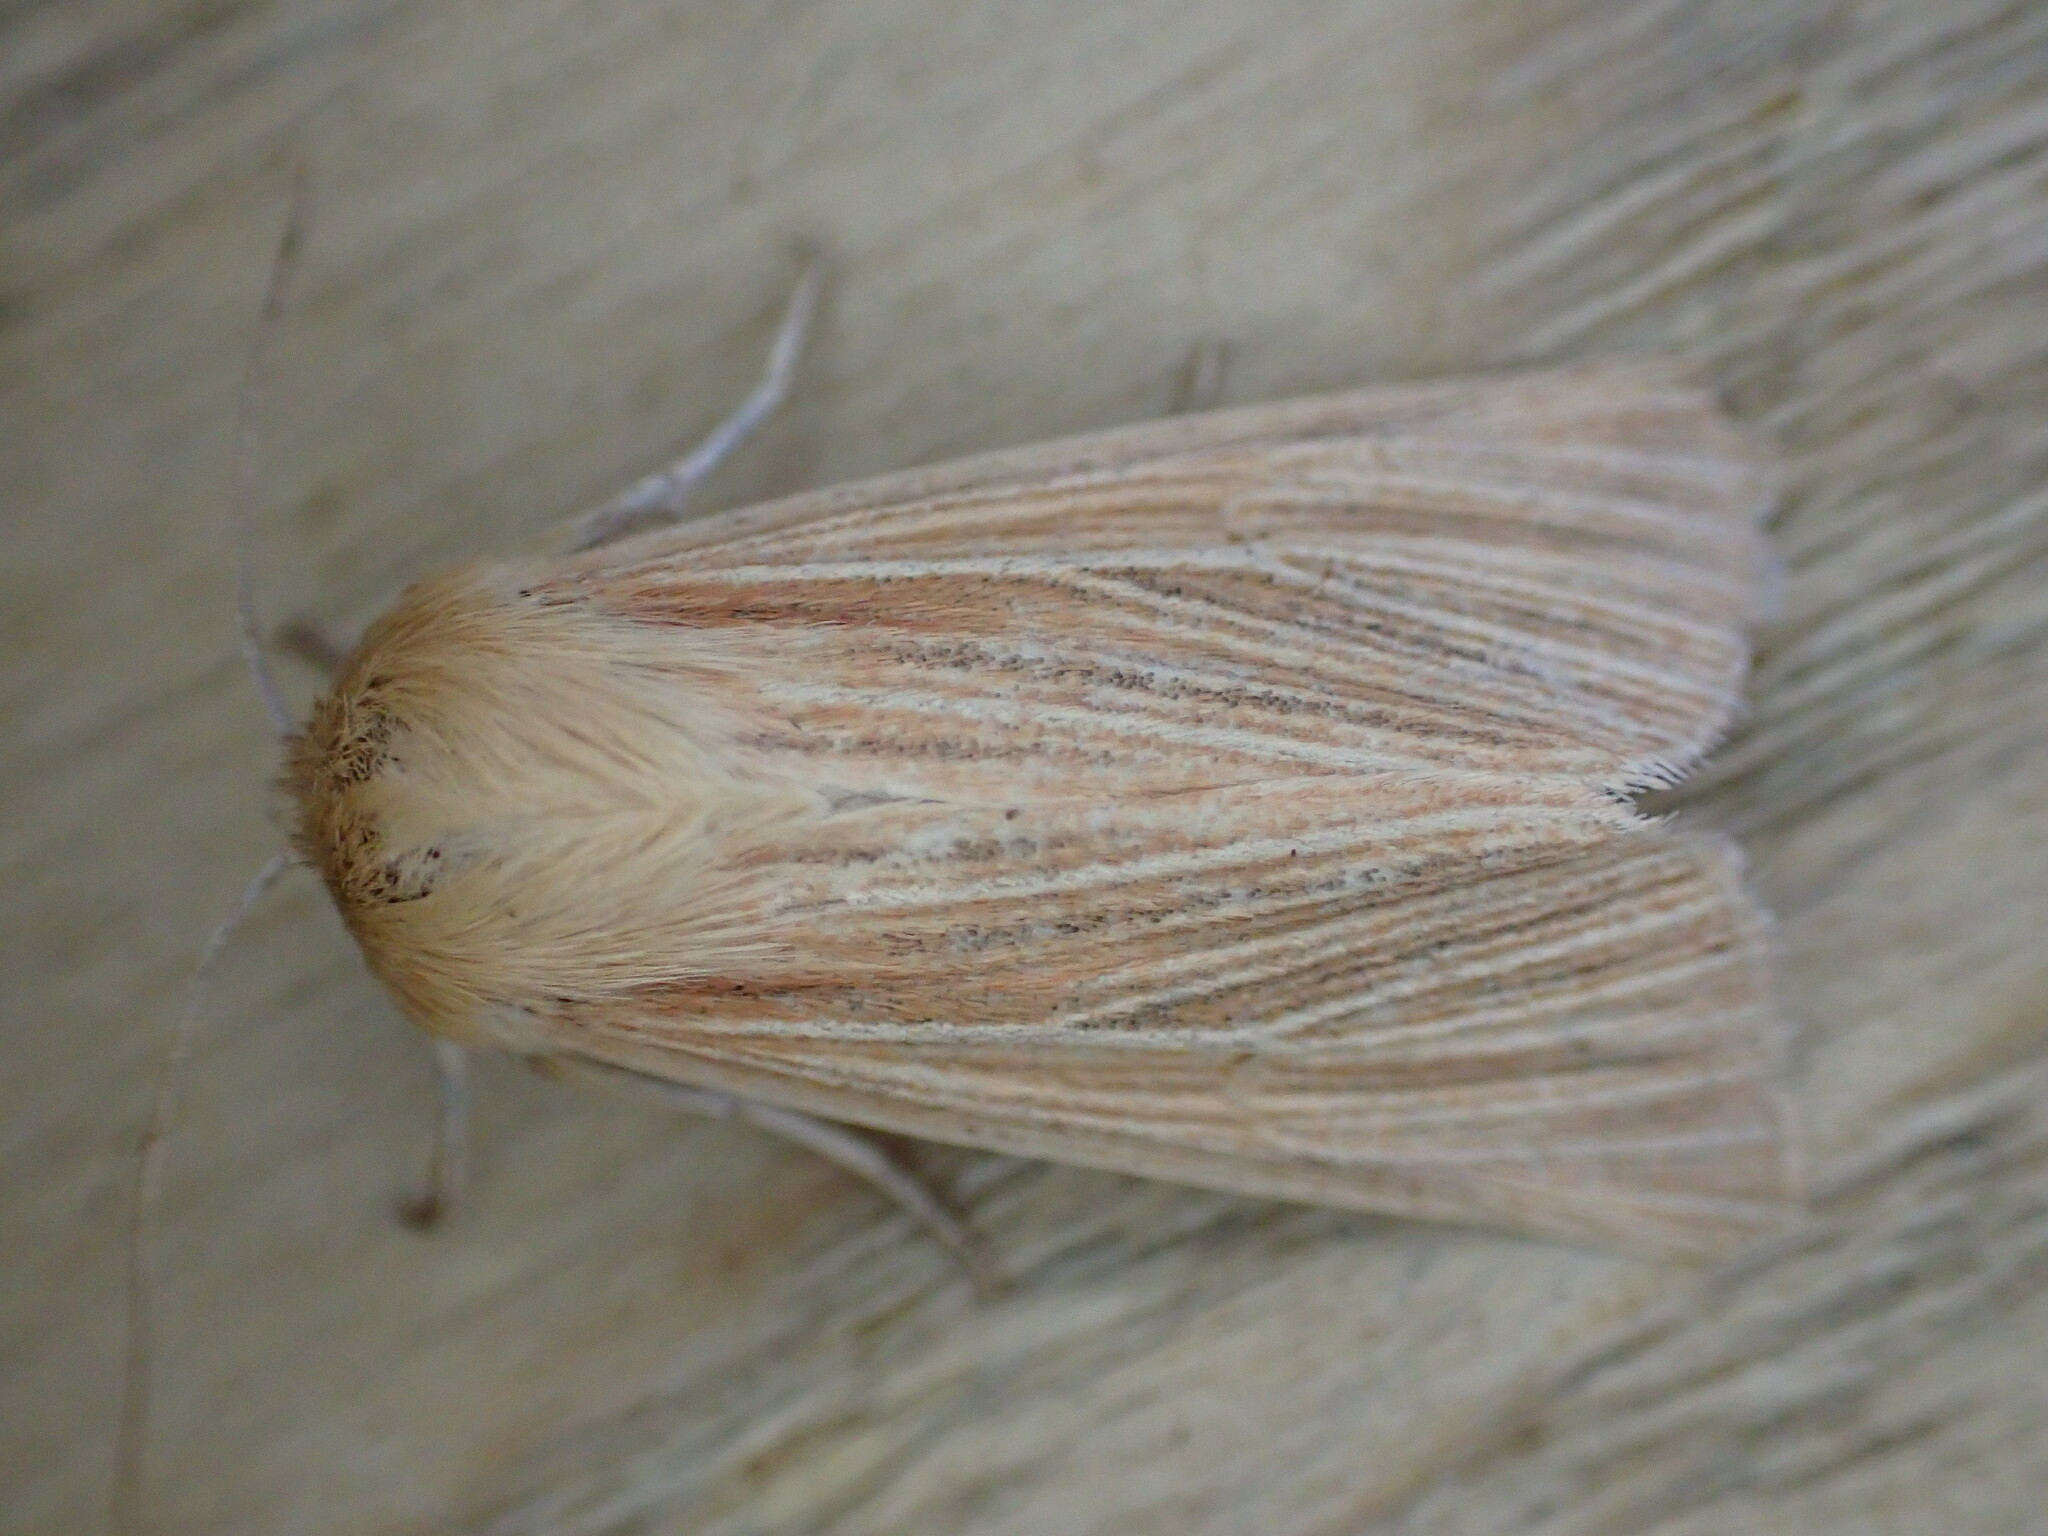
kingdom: Animalia
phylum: Arthropoda
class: Insecta
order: Lepidoptera
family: Noctuidae
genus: Mythimna
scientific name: Mythimna pallens
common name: Common wainscot
